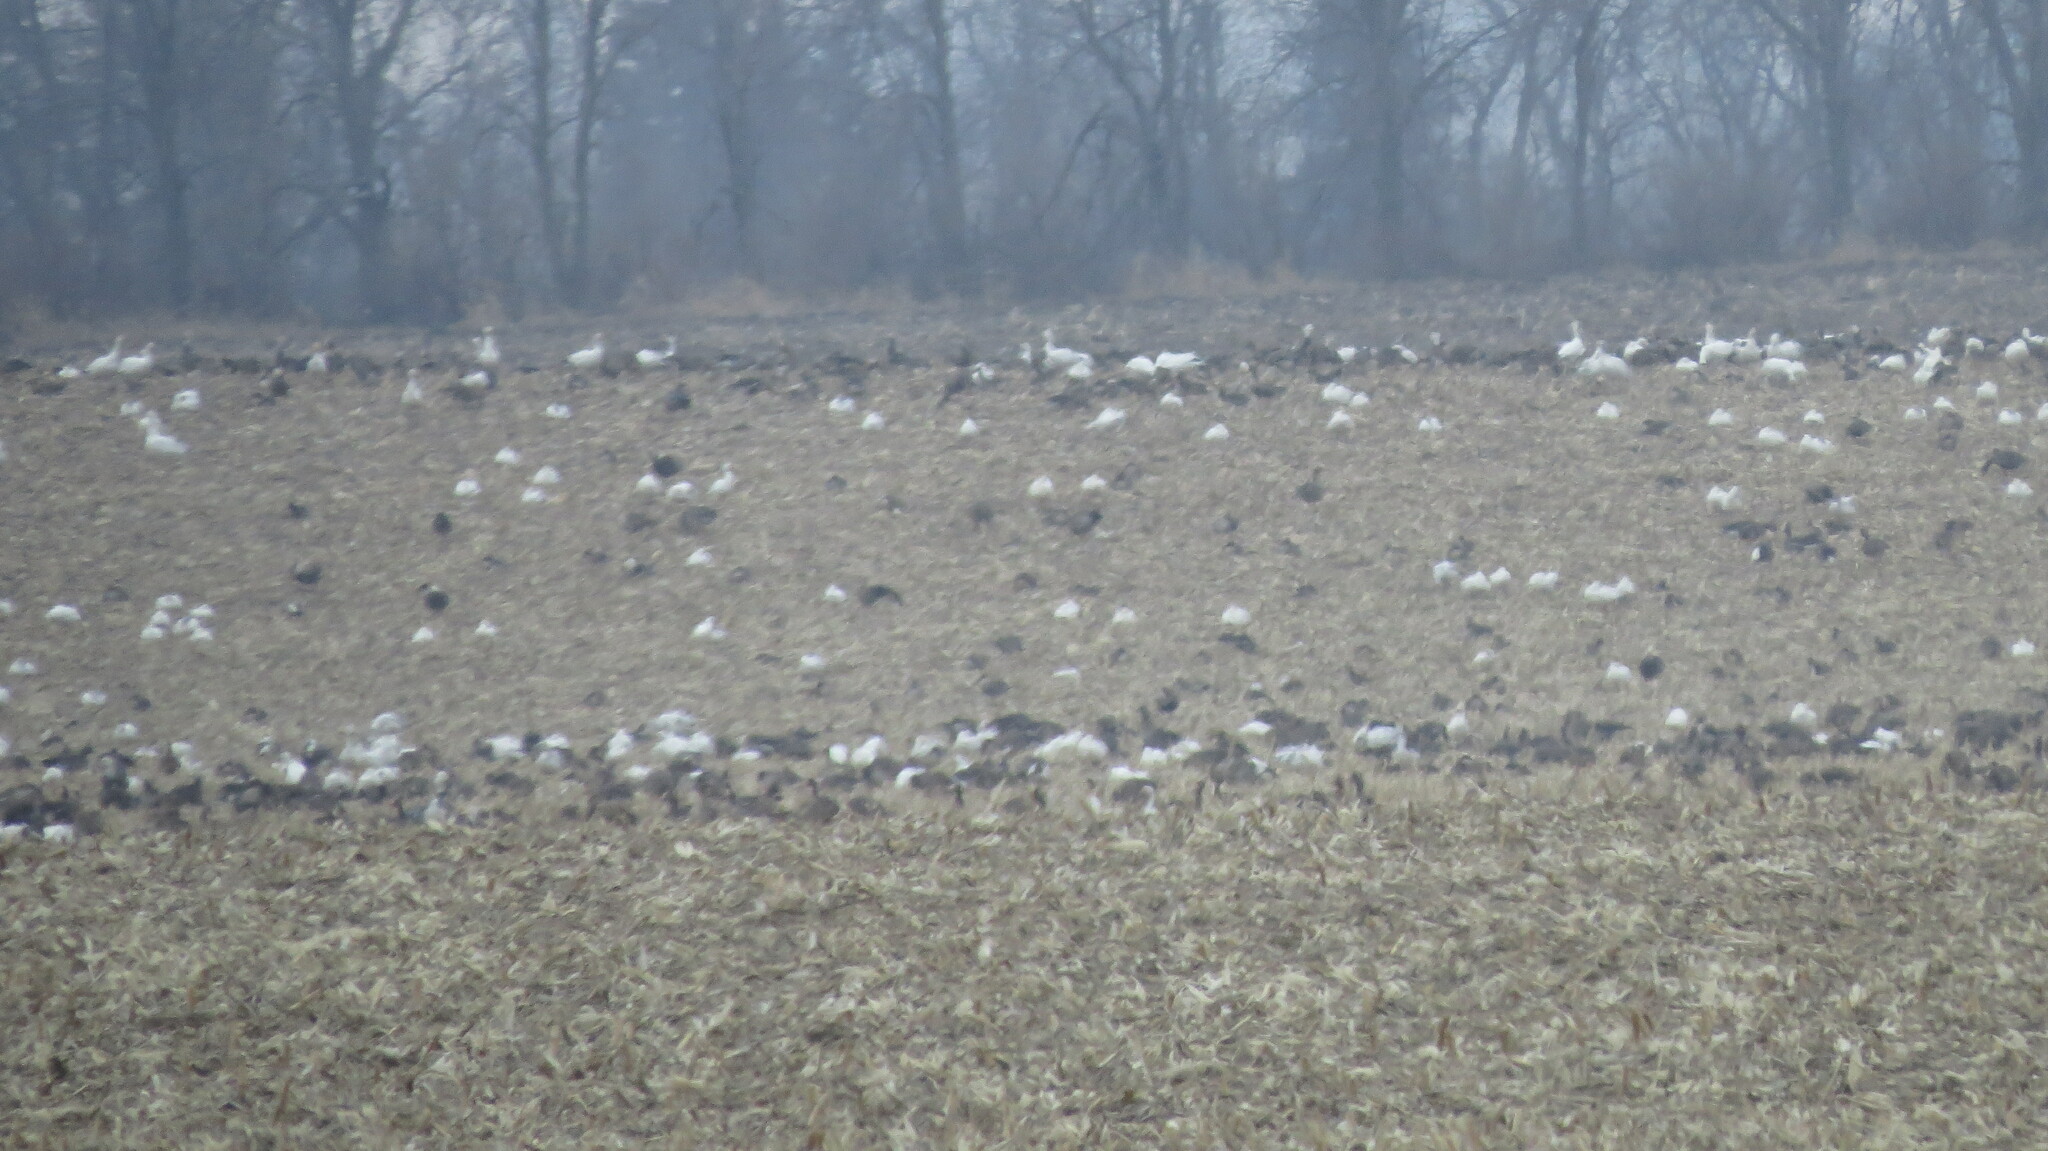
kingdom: Animalia
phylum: Chordata
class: Aves
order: Anseriformes
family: Anatidae
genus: Branta
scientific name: Branta canadensis
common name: Canada goose
